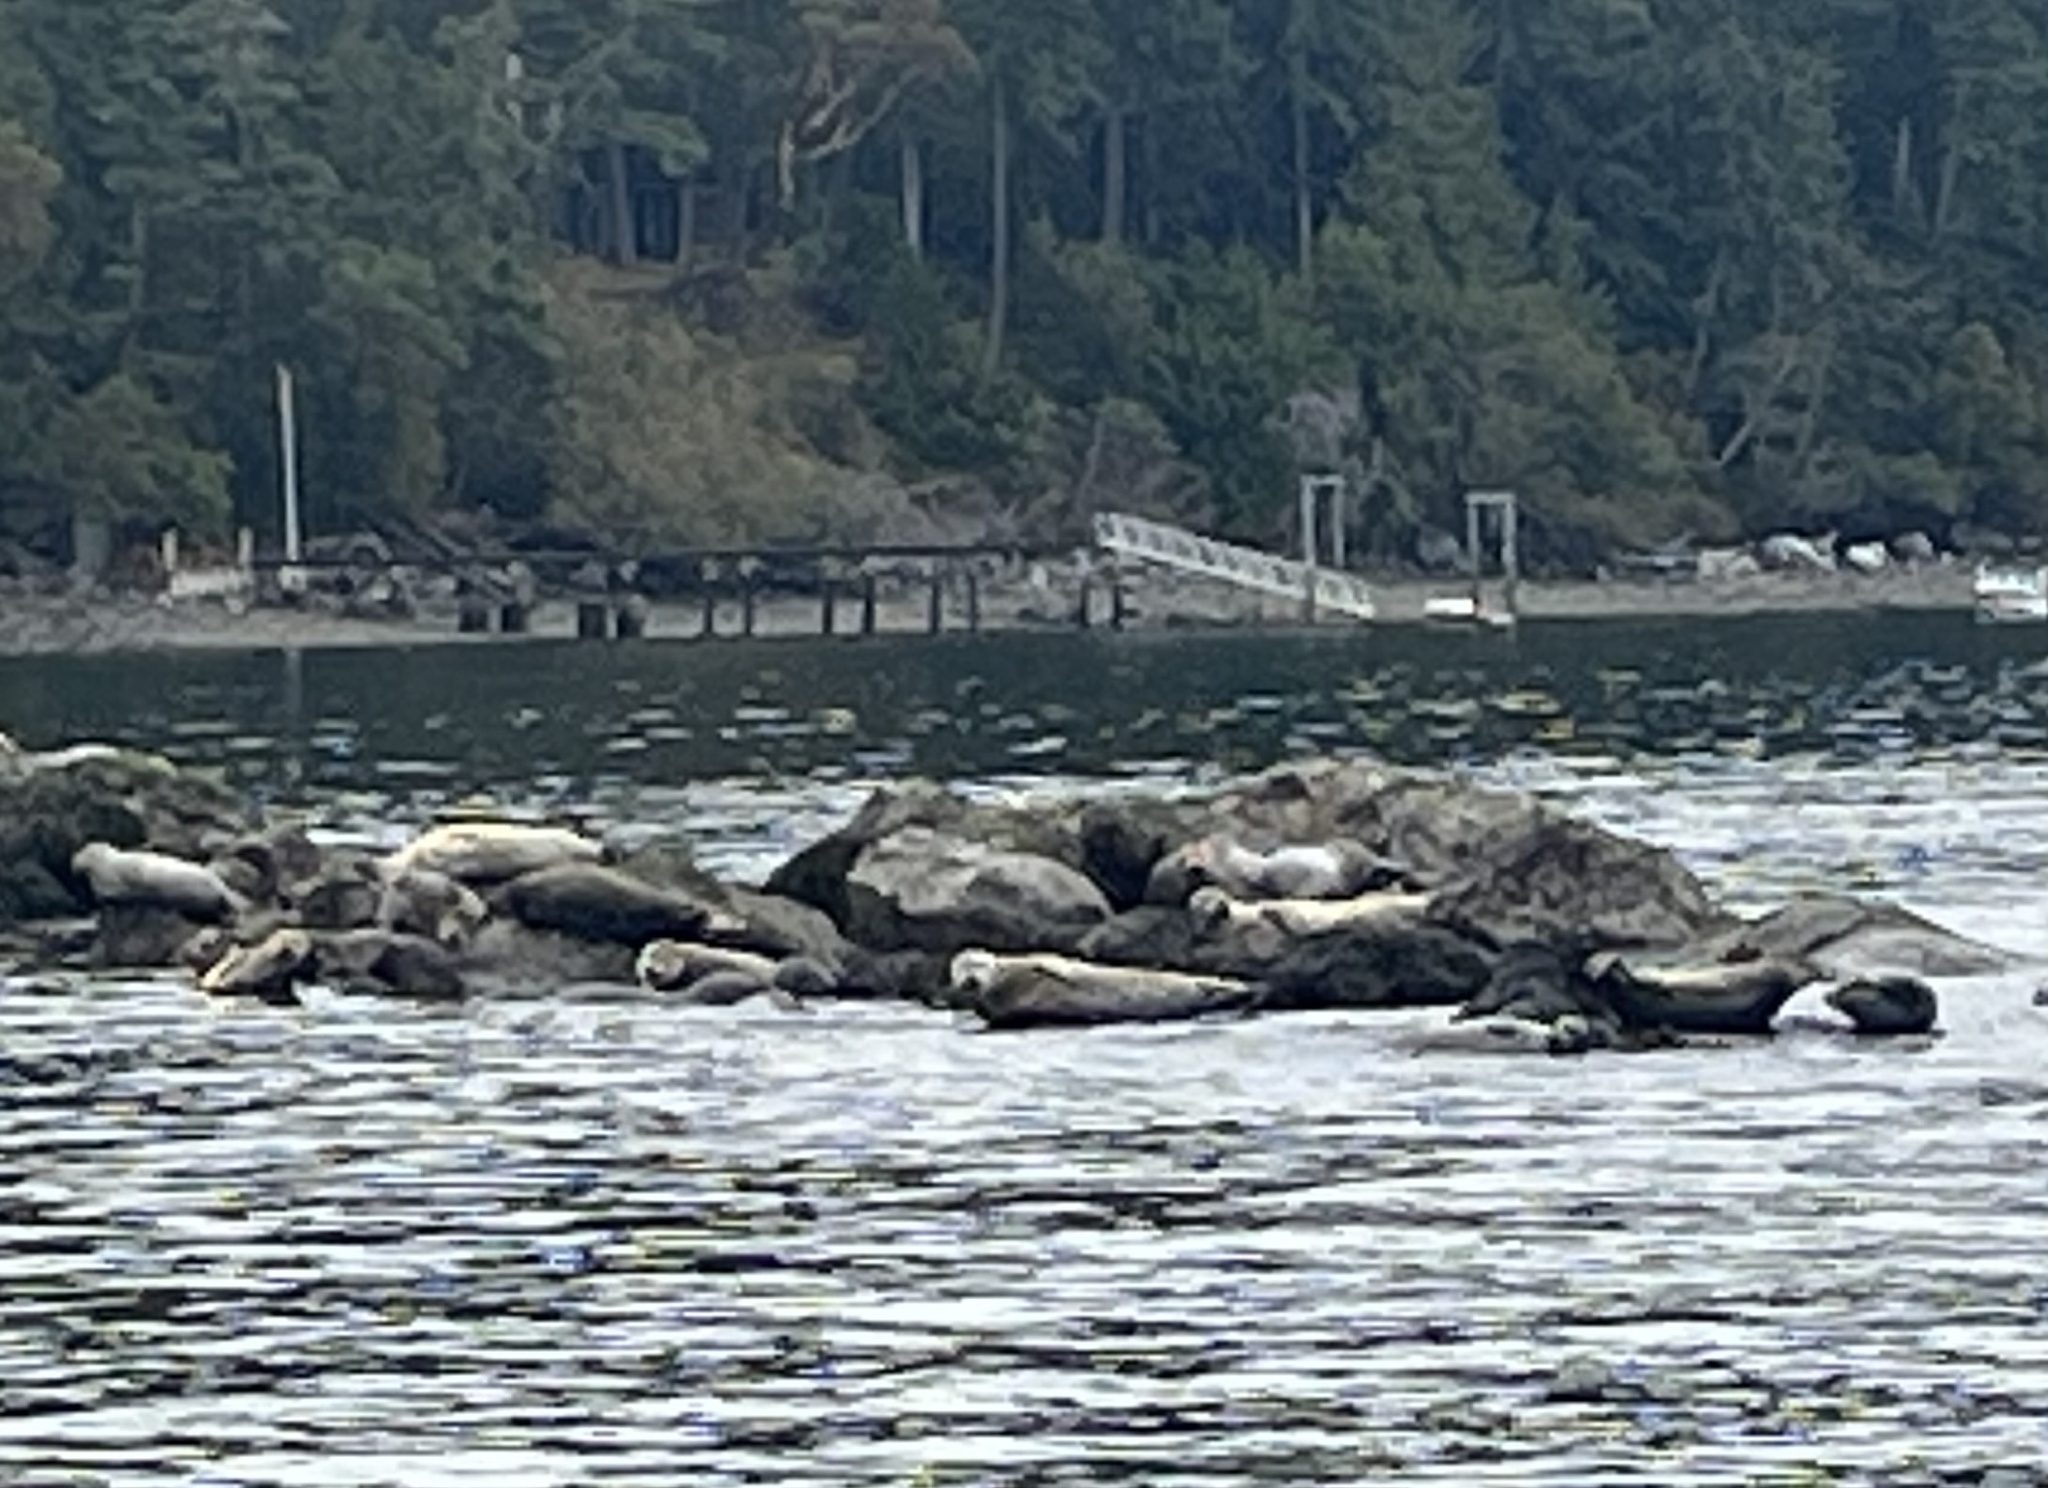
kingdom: Animalia
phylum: Chordata
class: Mammalia
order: Carnivora
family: Phocidae
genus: Phoca
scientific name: Phoca vitulina
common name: Harbor seal
